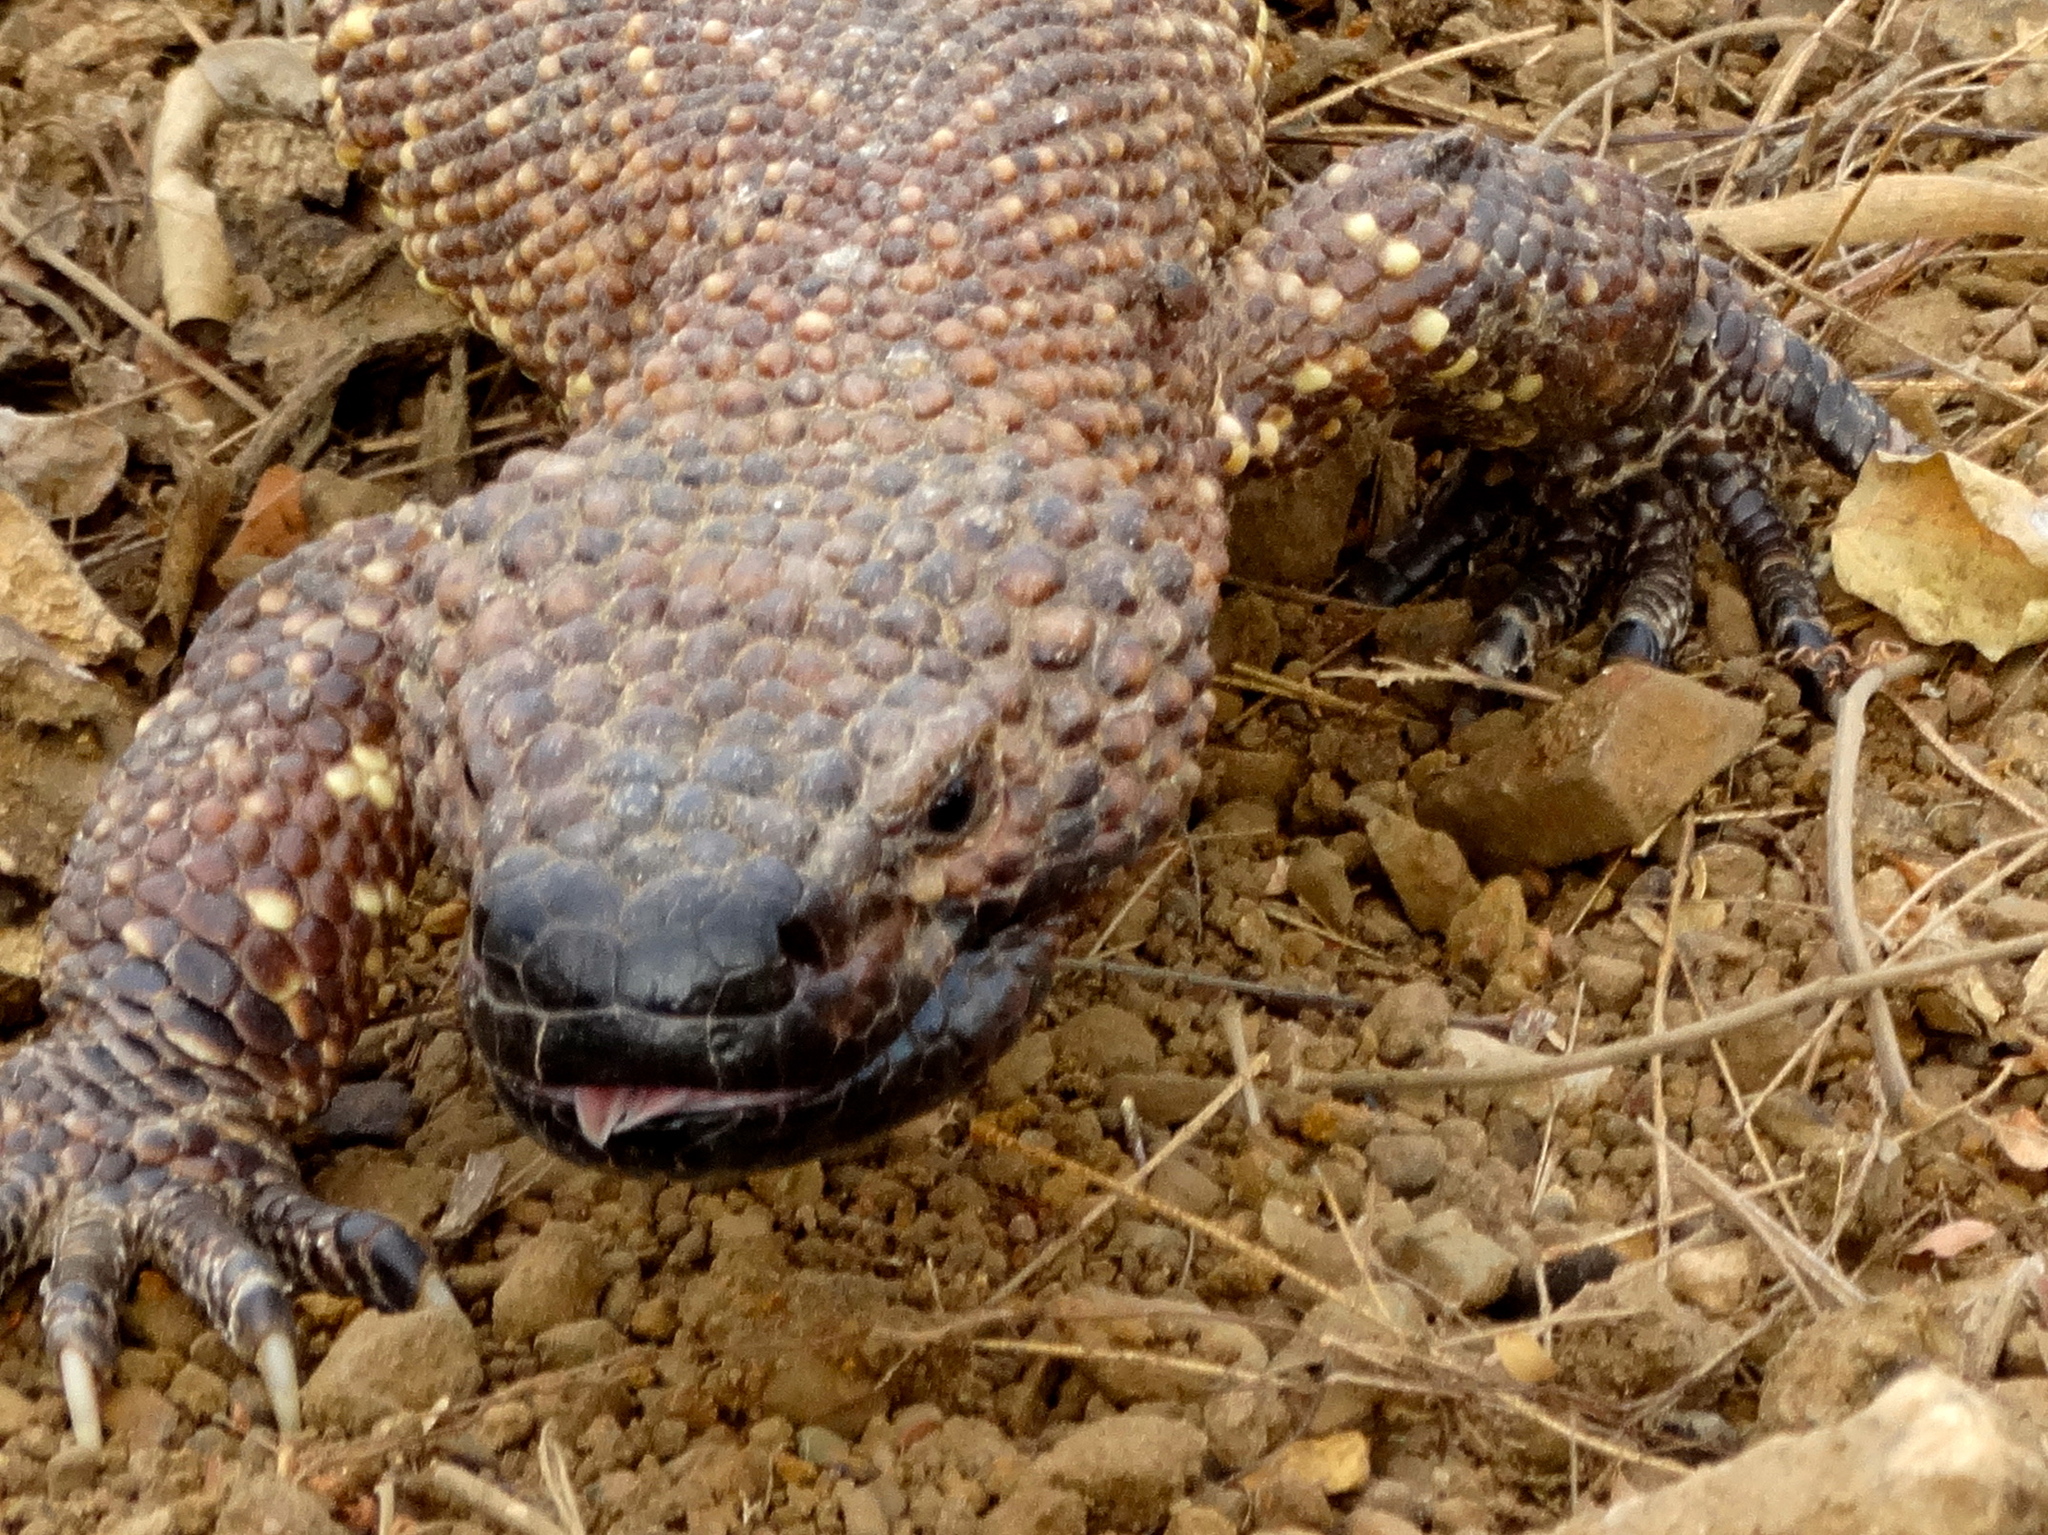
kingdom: Animalia
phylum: Chordata
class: Squamata
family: Helodermatidae
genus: Heloderma
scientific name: Heloderma horridum
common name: Mexican beaded lizard
